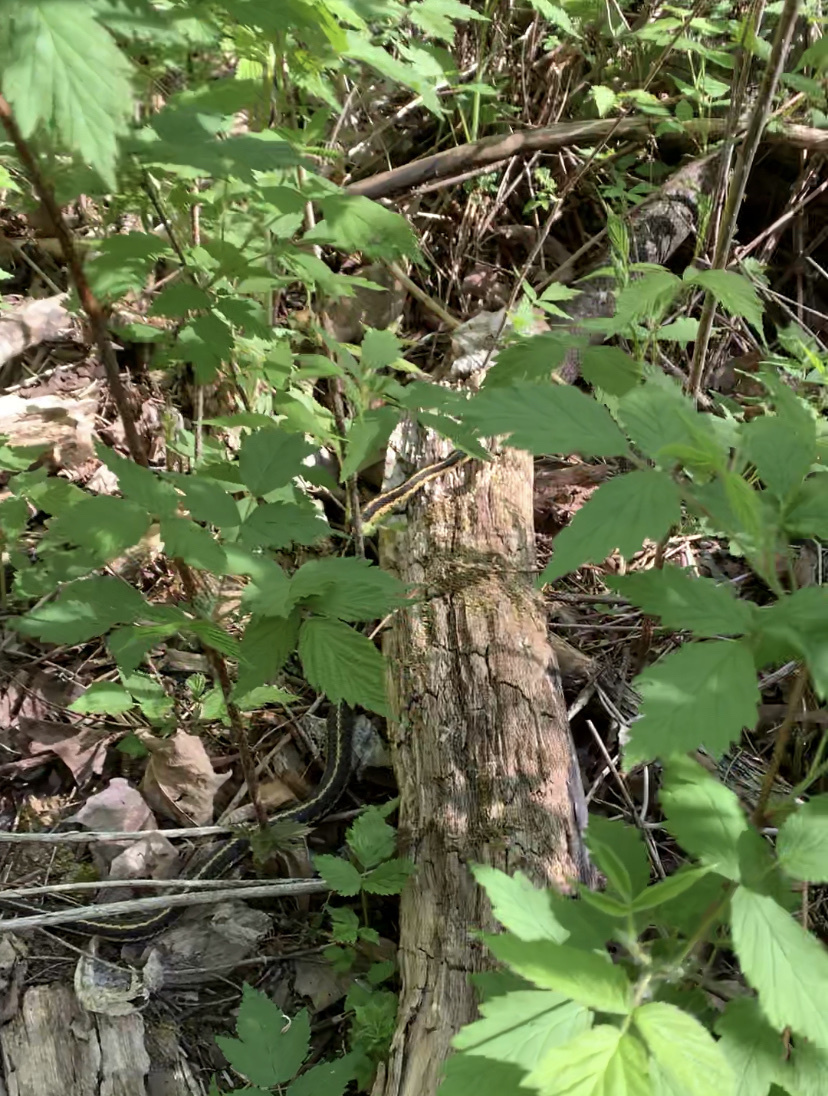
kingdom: Animalia
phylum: Chordata
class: Squamata
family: Colubridae
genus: Thamnophis
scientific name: Thamnophis sirtalis
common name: Common garter snake
